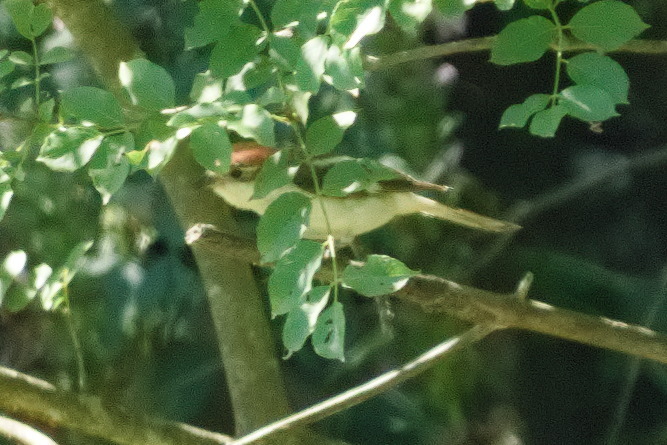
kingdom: Animalia
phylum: Chordata
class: Aves
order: Passeriformes
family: Laniidae
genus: Lanius
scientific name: Lanius senator
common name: Woodchat shrike
